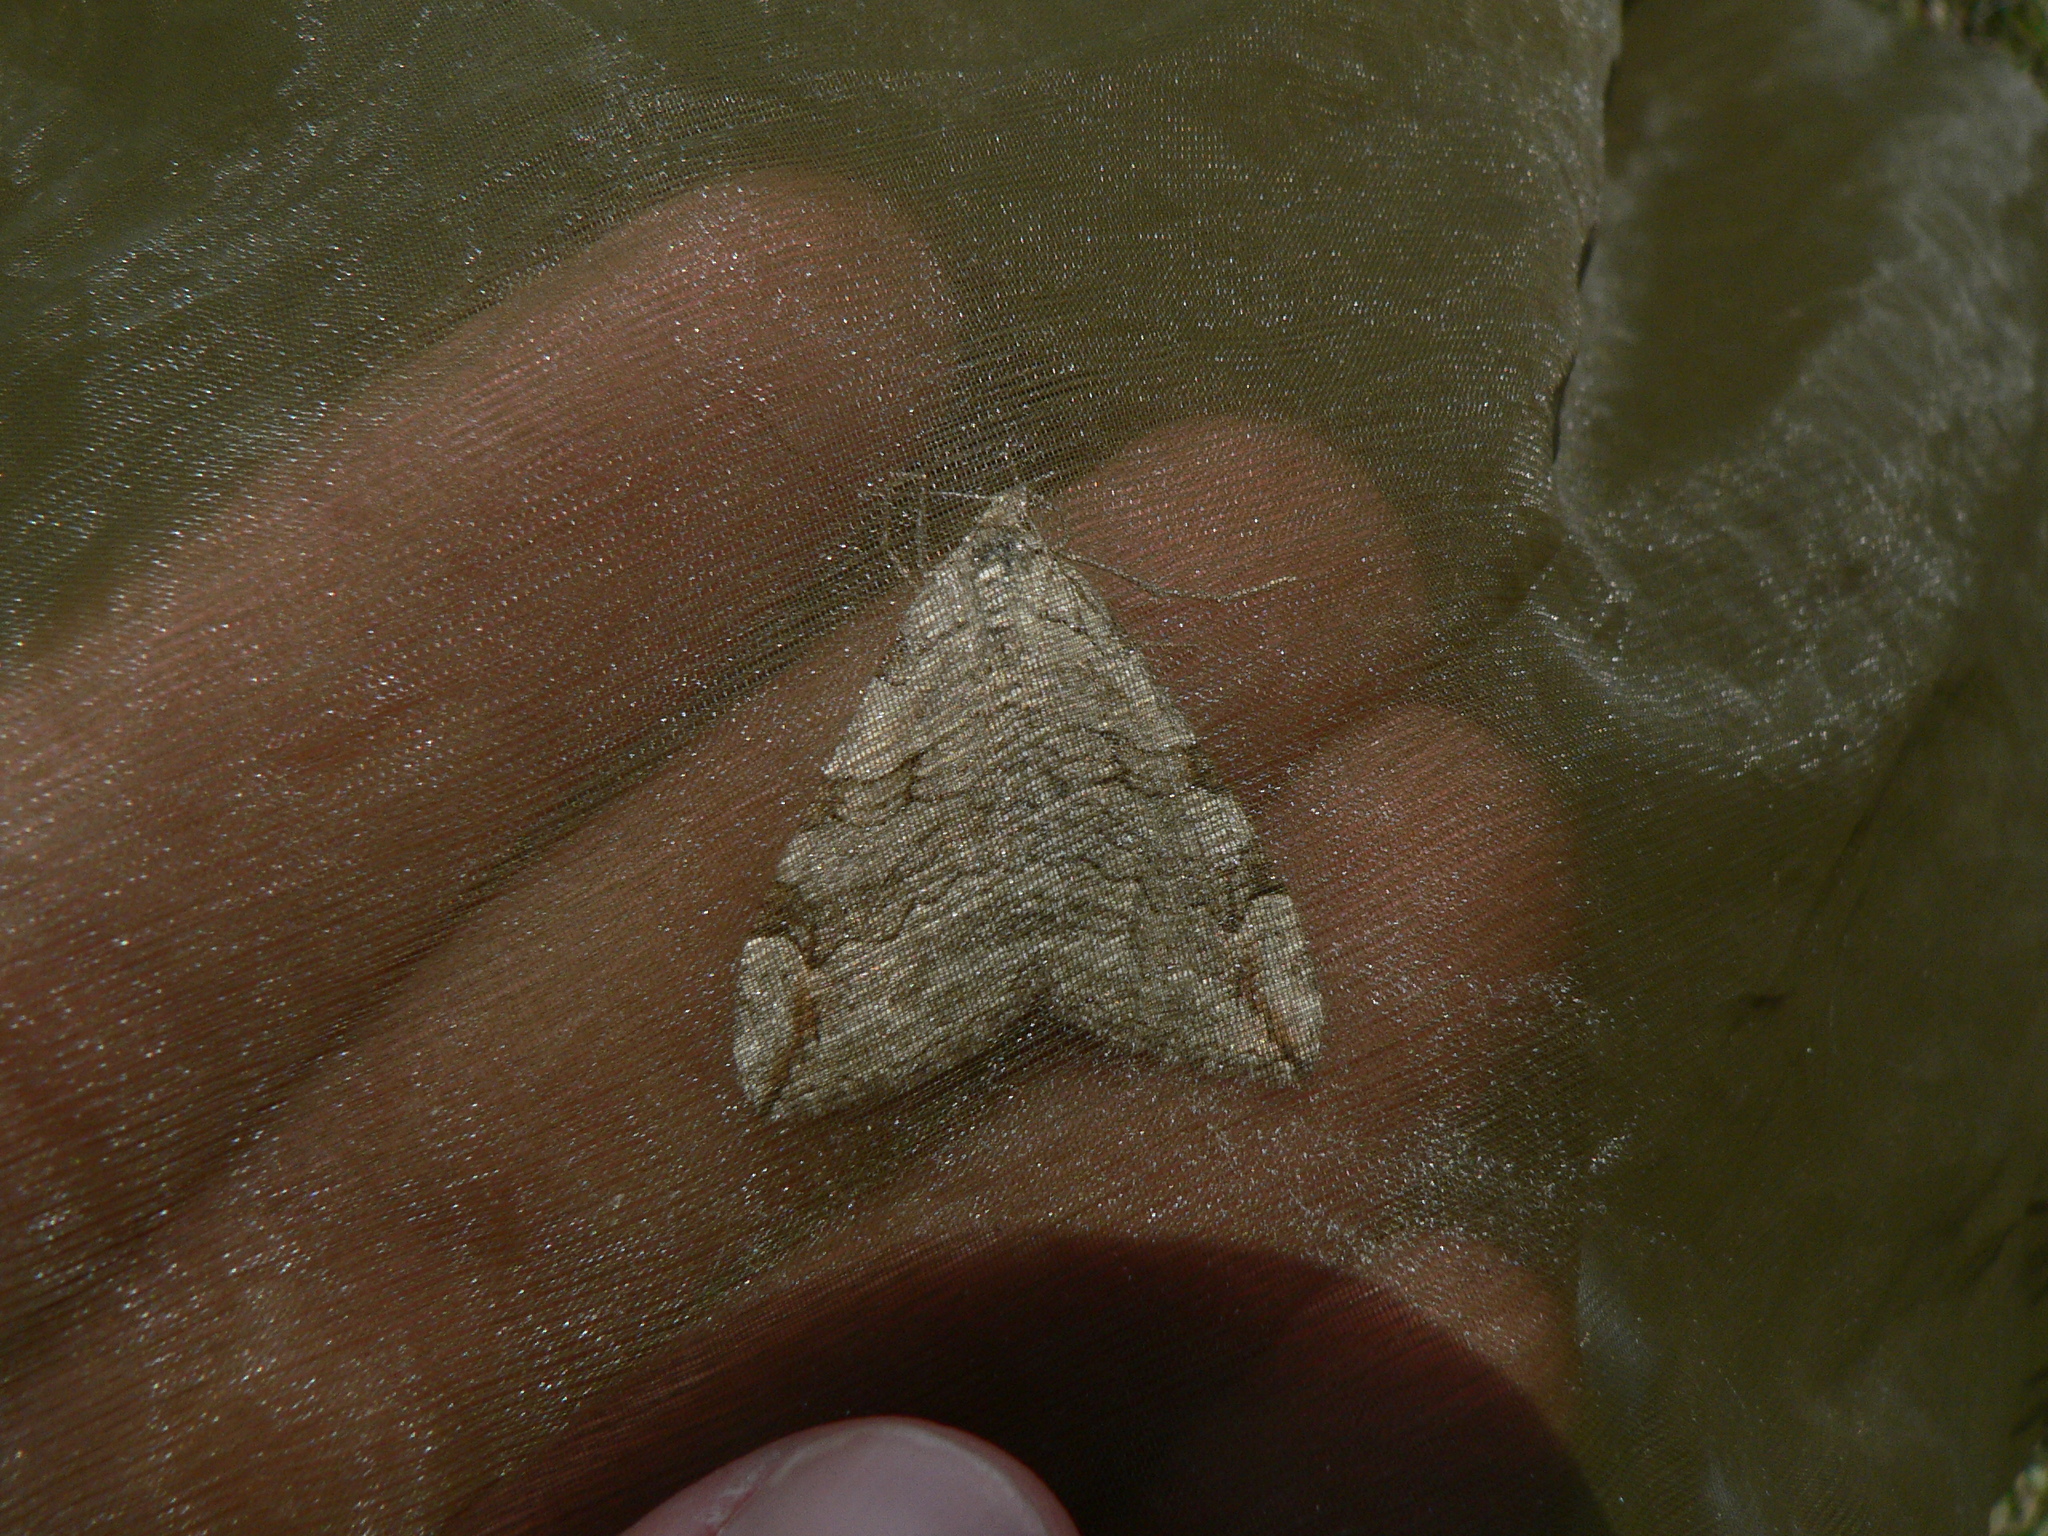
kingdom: Animalia
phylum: Arthropoda
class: Insecta
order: Lepidoptera
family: Geometridae
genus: Aplocera
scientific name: Aplocera plagiata
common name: Treble-bar
